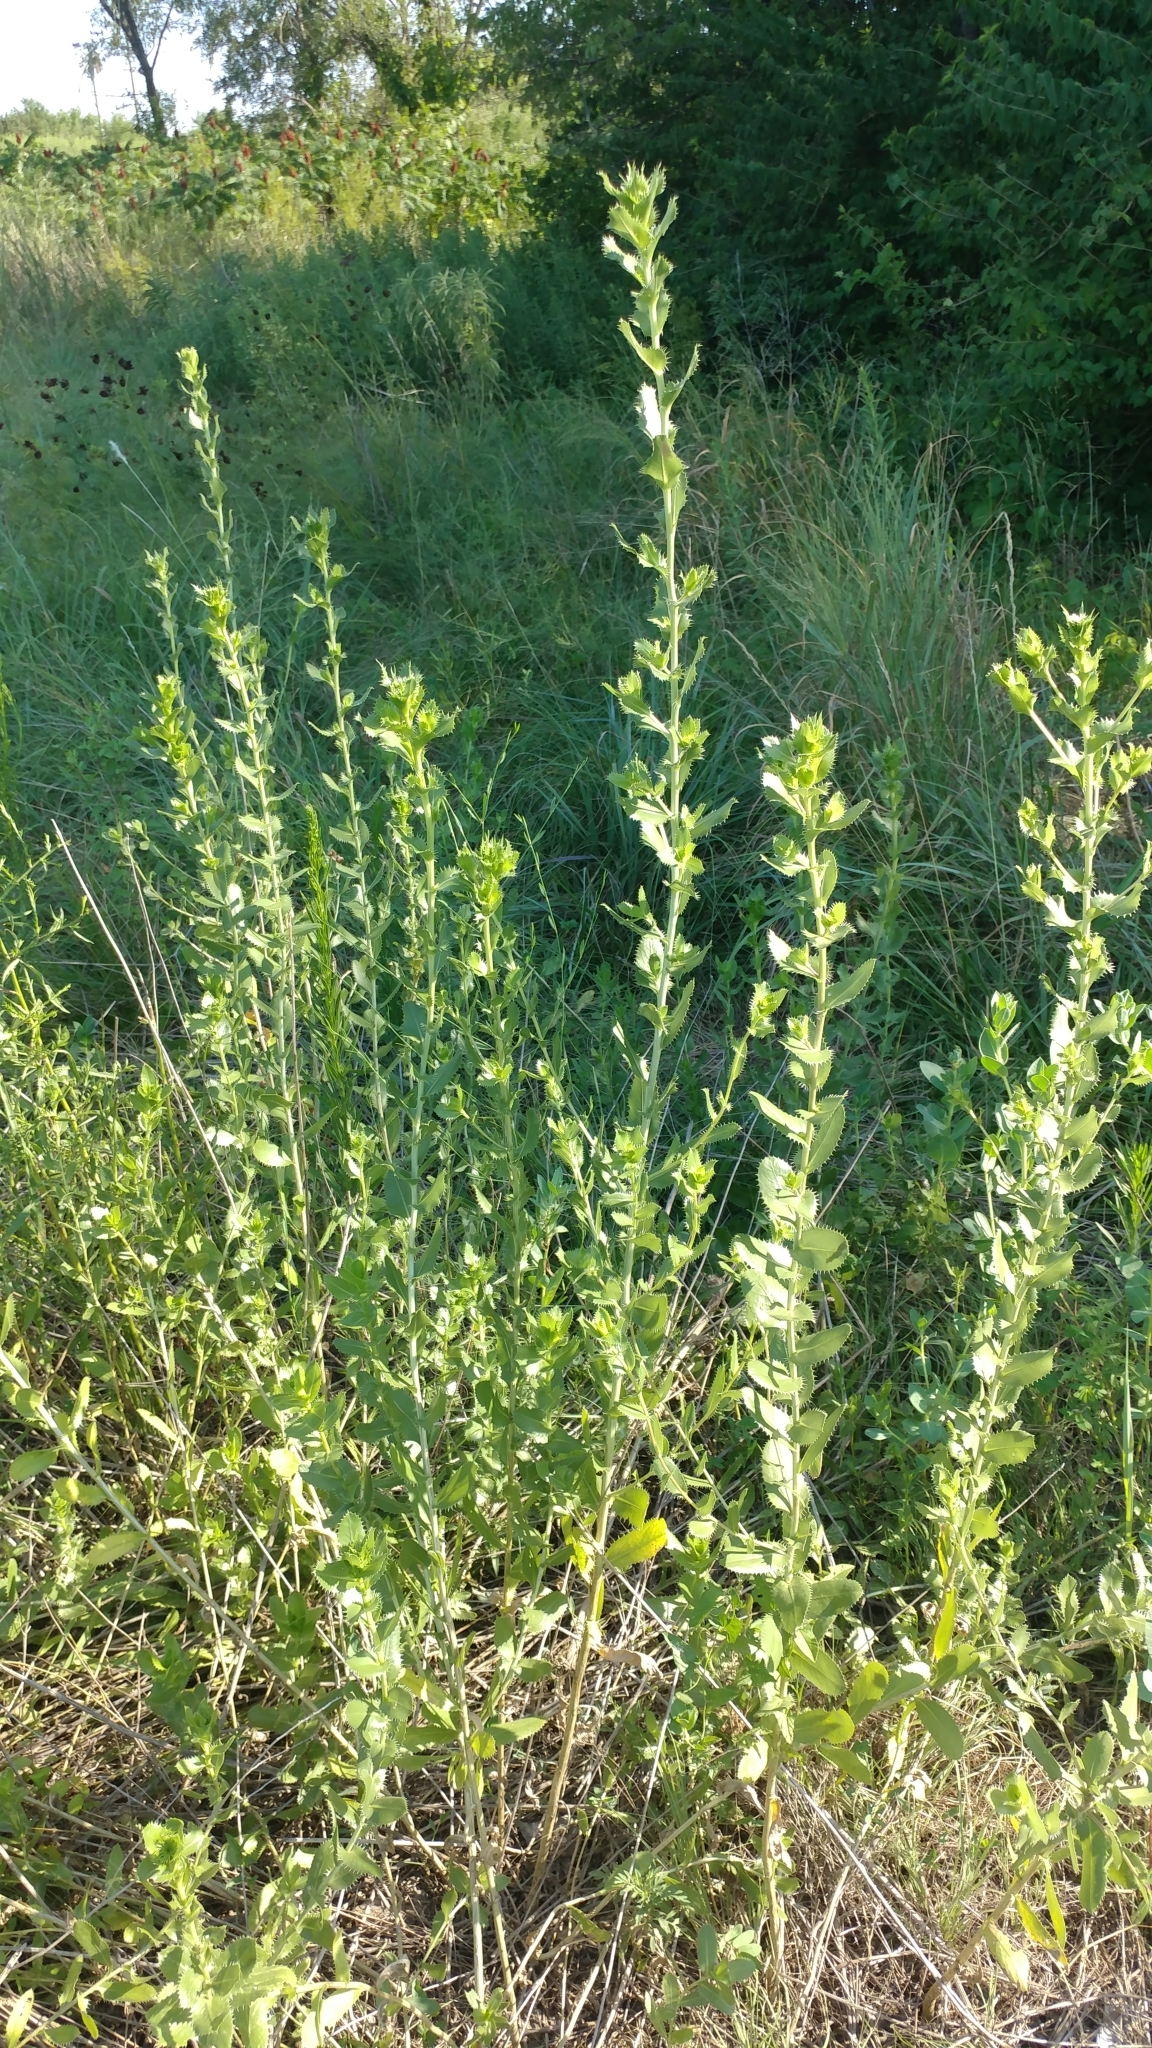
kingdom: Plantae
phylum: Tracheophyta
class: Magnoliopsida
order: Asterales
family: Asteraceae
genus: Grindelia
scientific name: Grindelia ciliata
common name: Goldenweed
